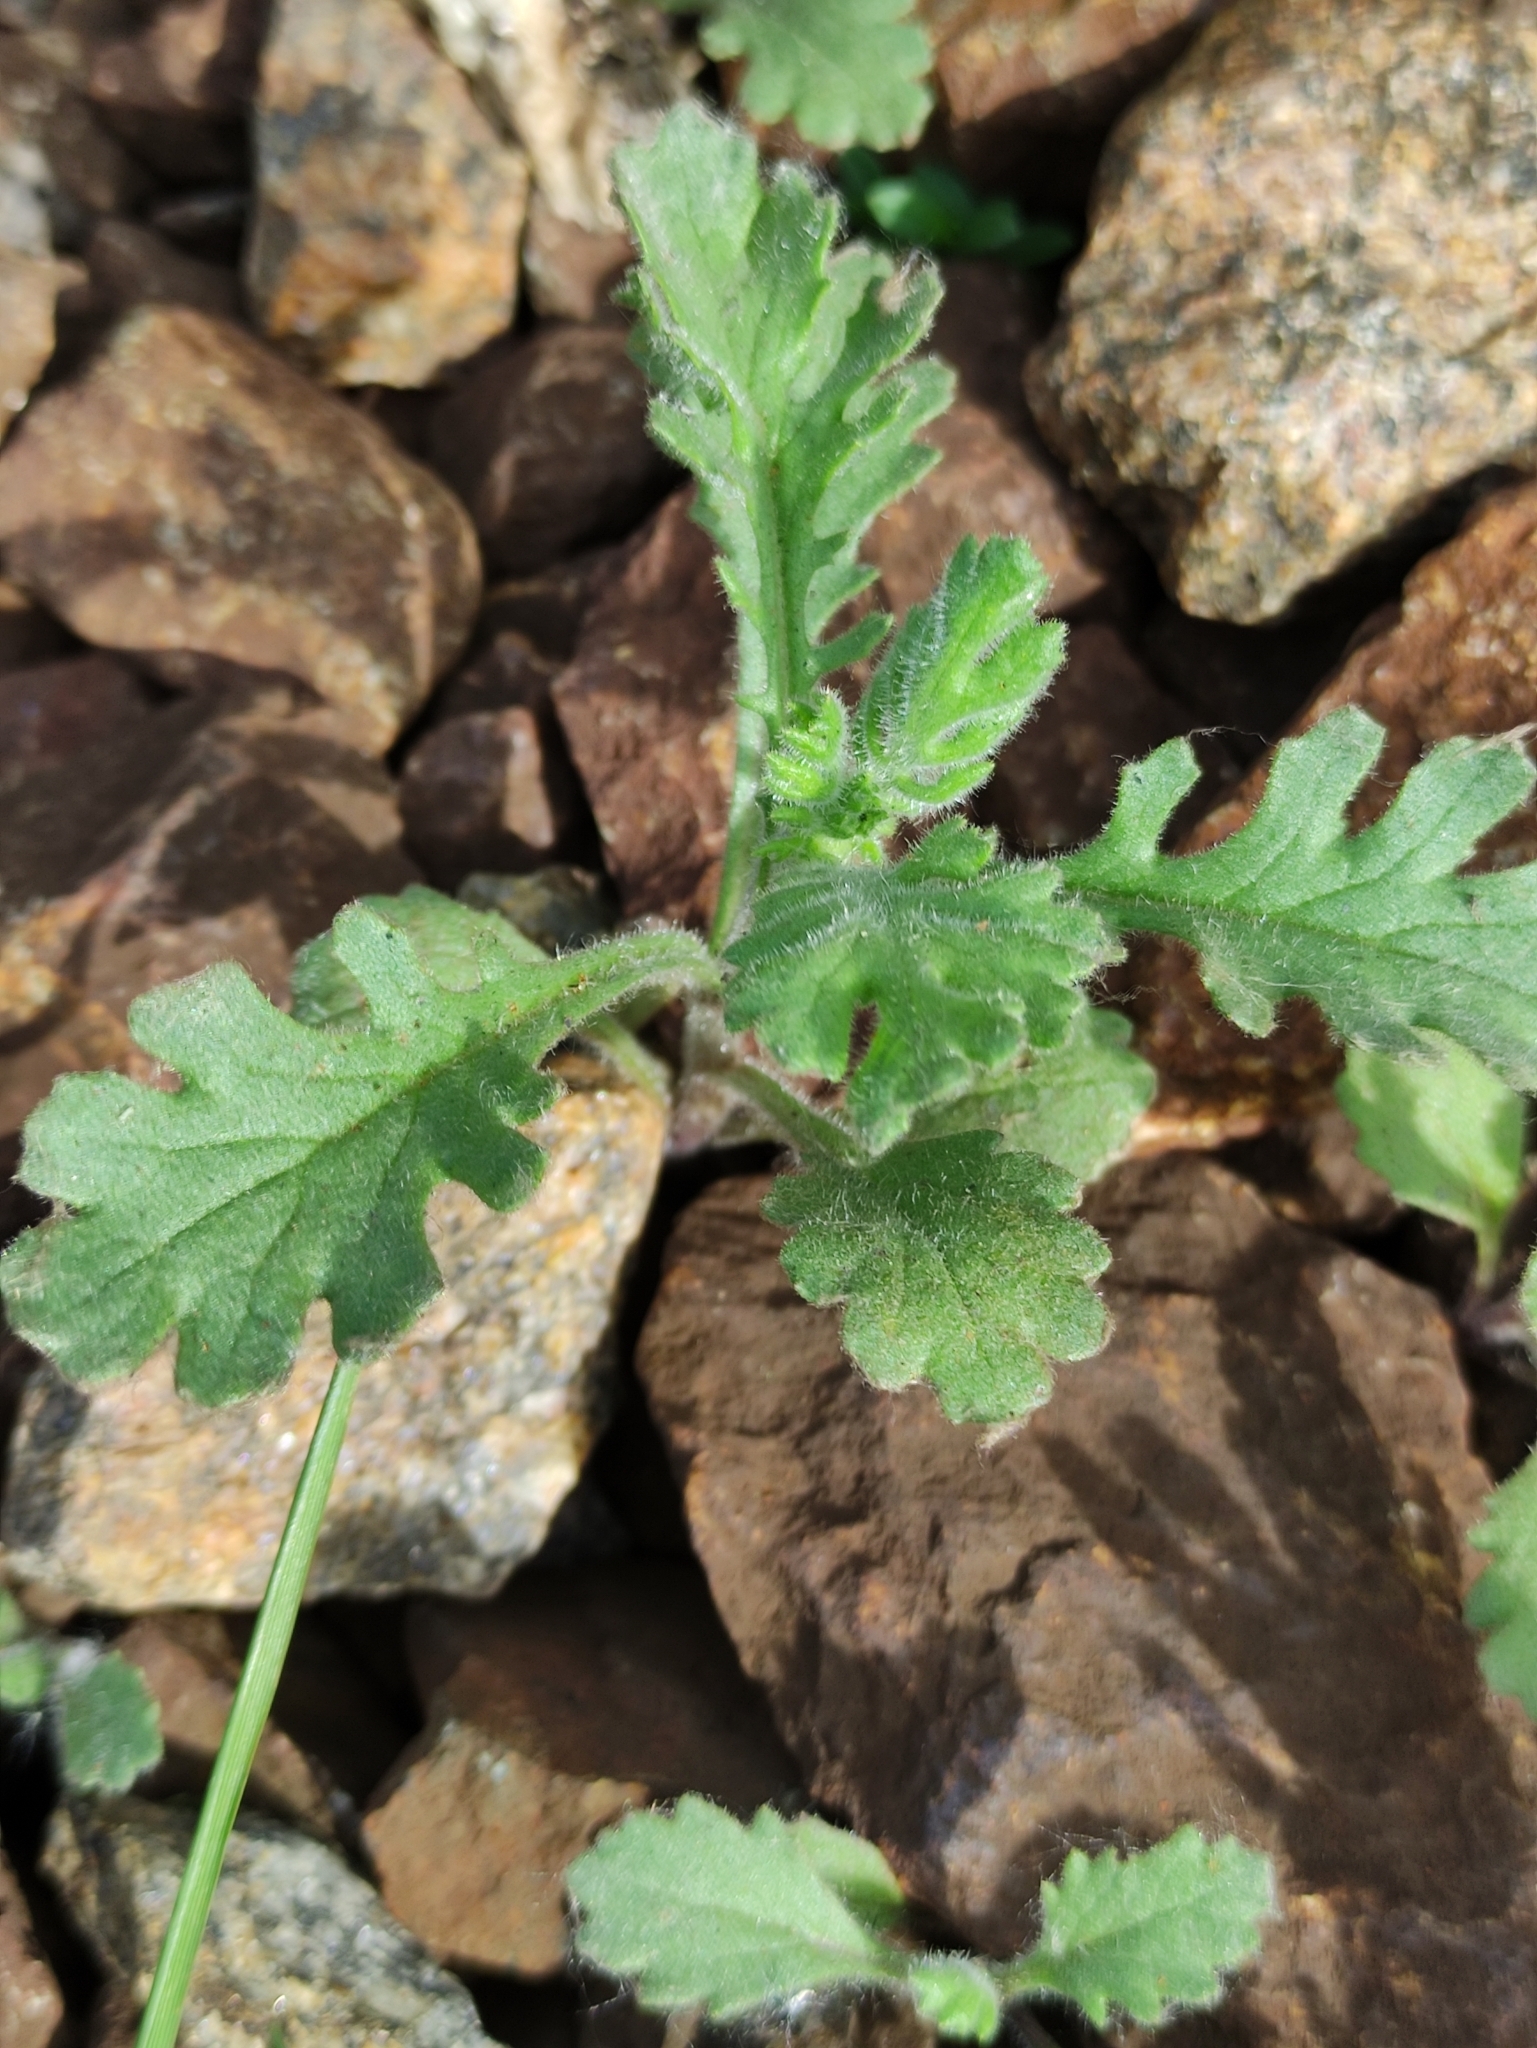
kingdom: Plantae
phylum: Tracheophyta
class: Magnoliopsida
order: Asterales
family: Asteraceae
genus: Senecio
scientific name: Senecio viscosus
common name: Sticky groundsel
